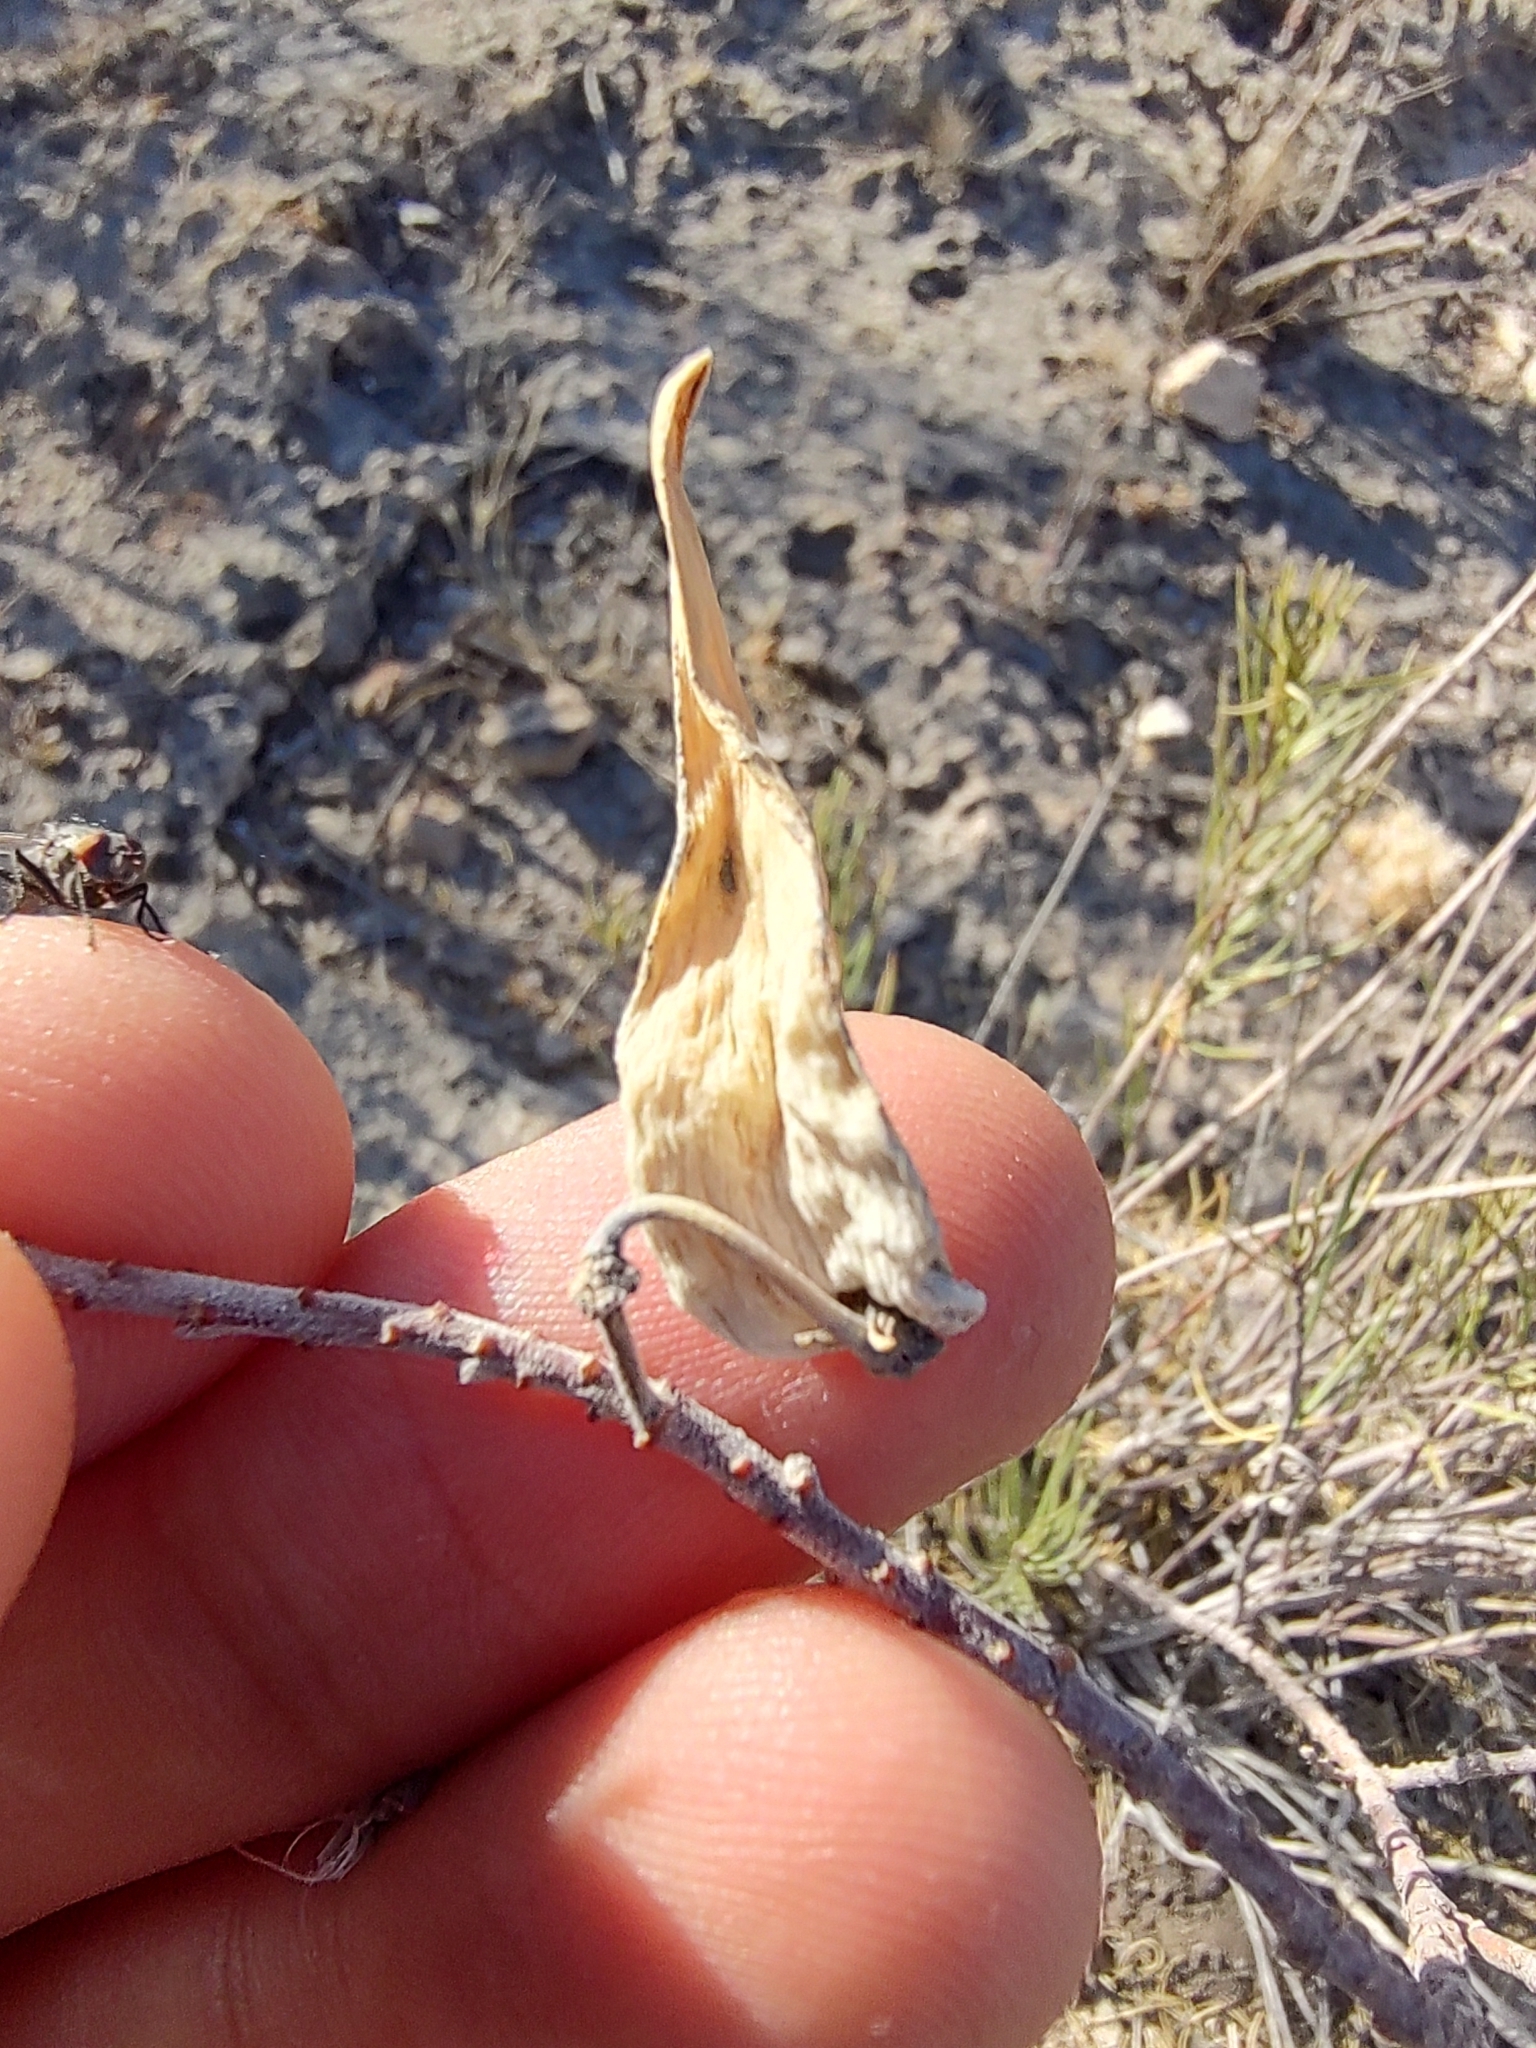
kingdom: Plantae
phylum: Tracheophyta
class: Magnoliopsida
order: Gentianales
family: Apocynaceae
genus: Asclepias
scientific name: Asclepias linaria
